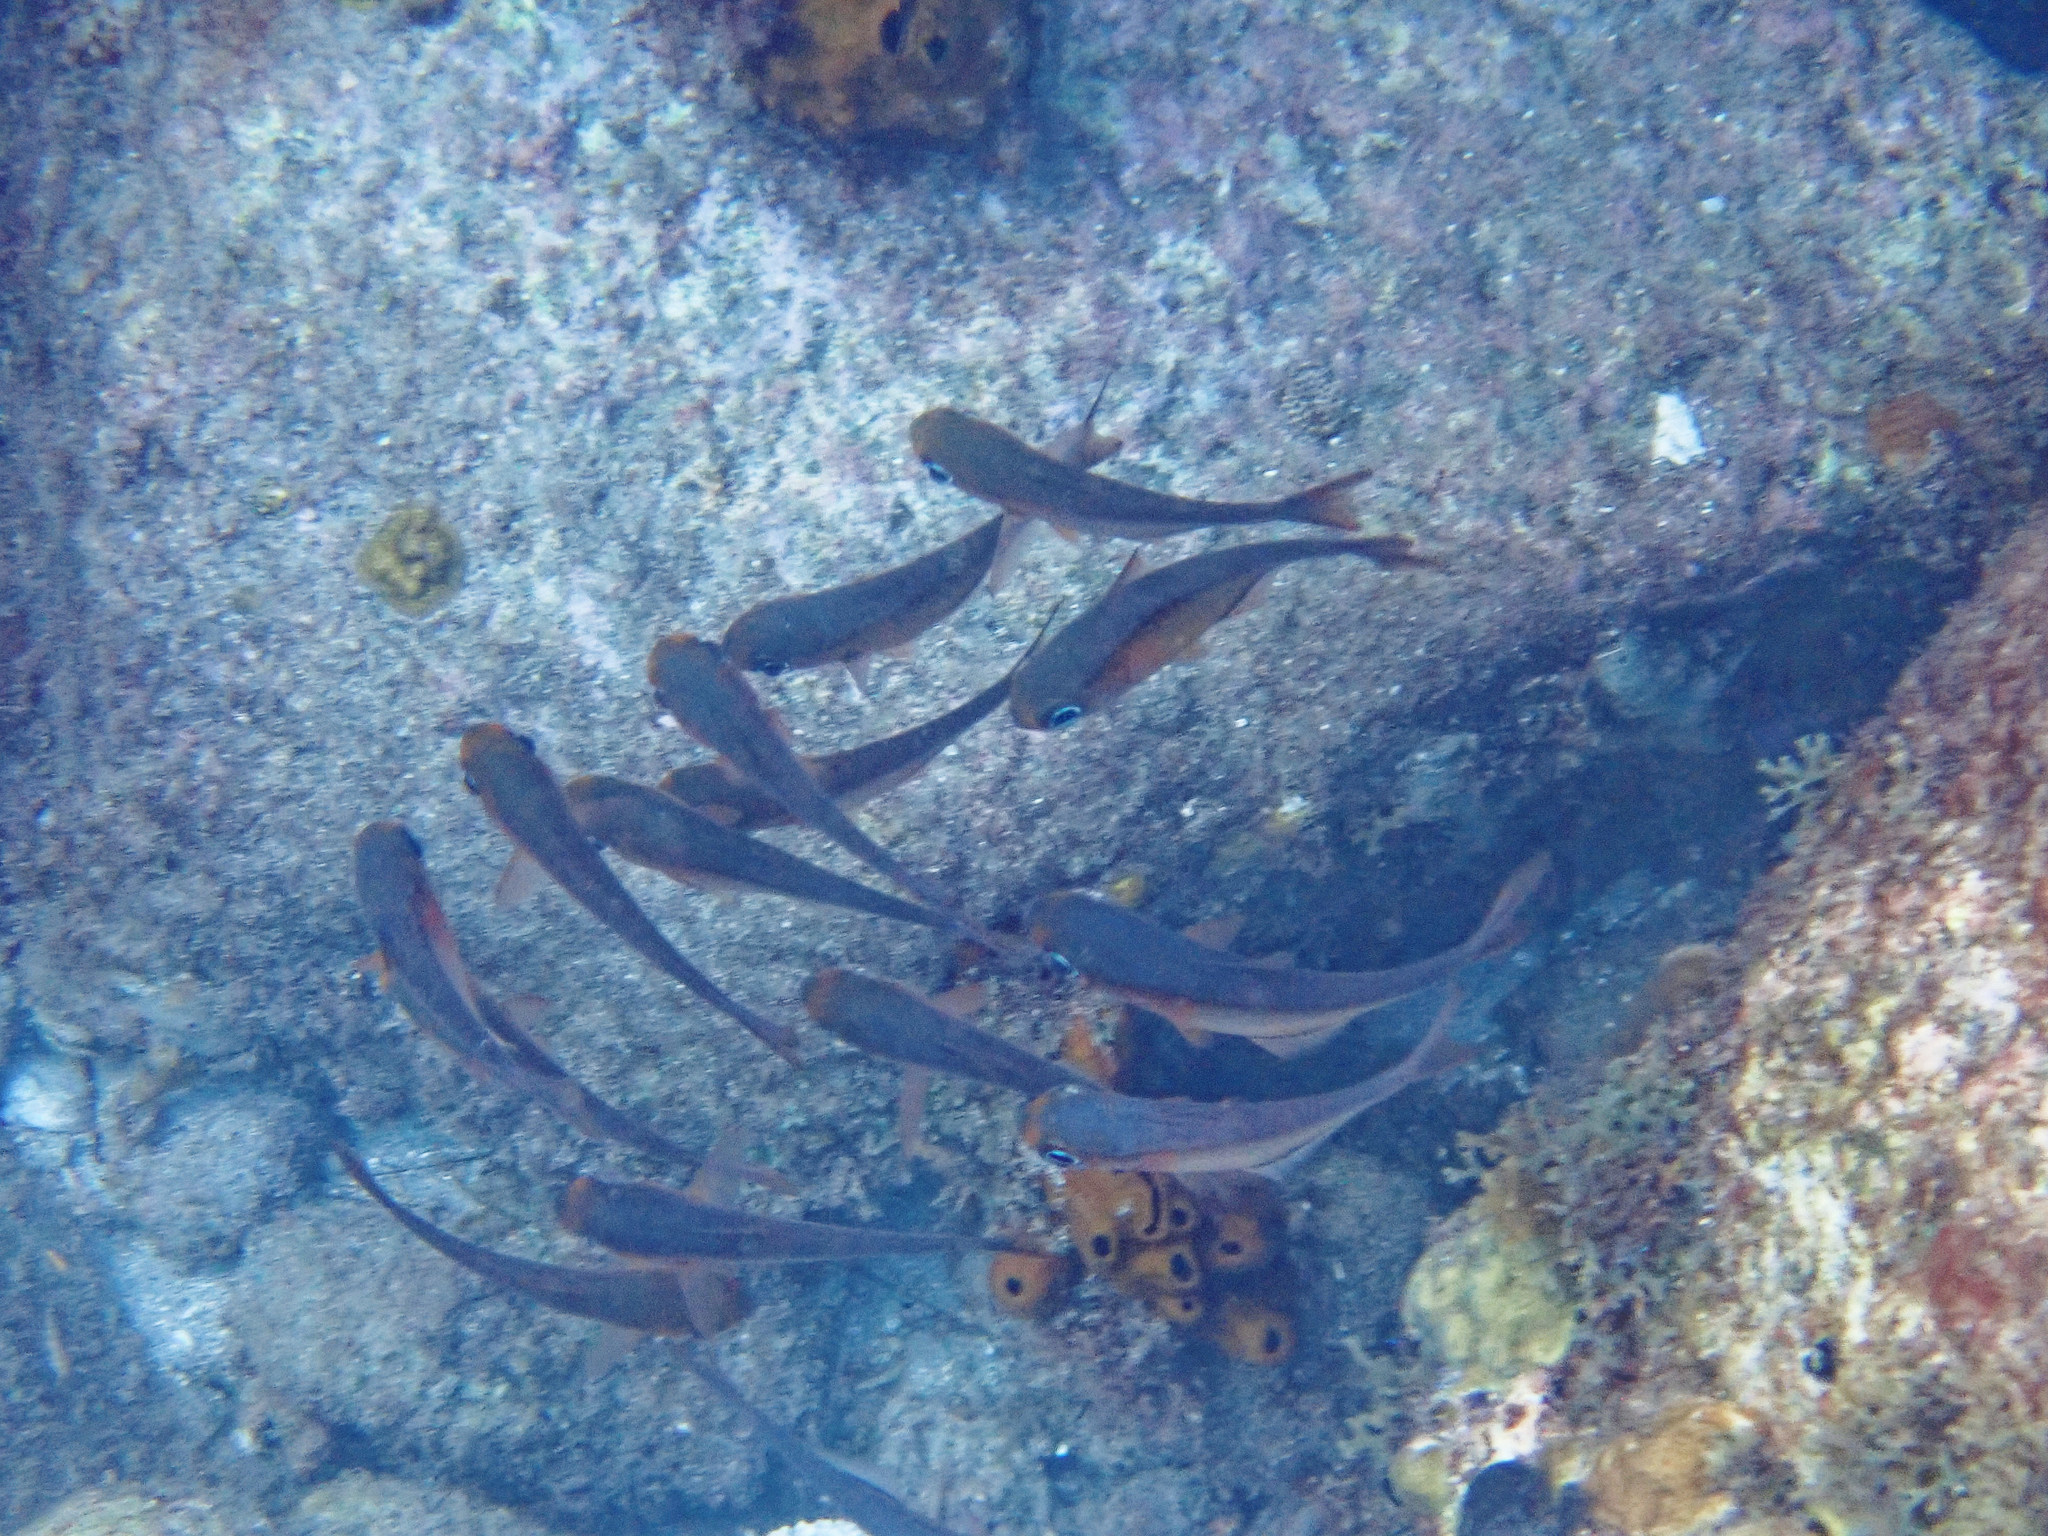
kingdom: Animalia
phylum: Chordata
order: Perciformes
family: Pempheridae
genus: Pempheris
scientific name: Pempheris schomburgkii
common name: Glassy sweeper
